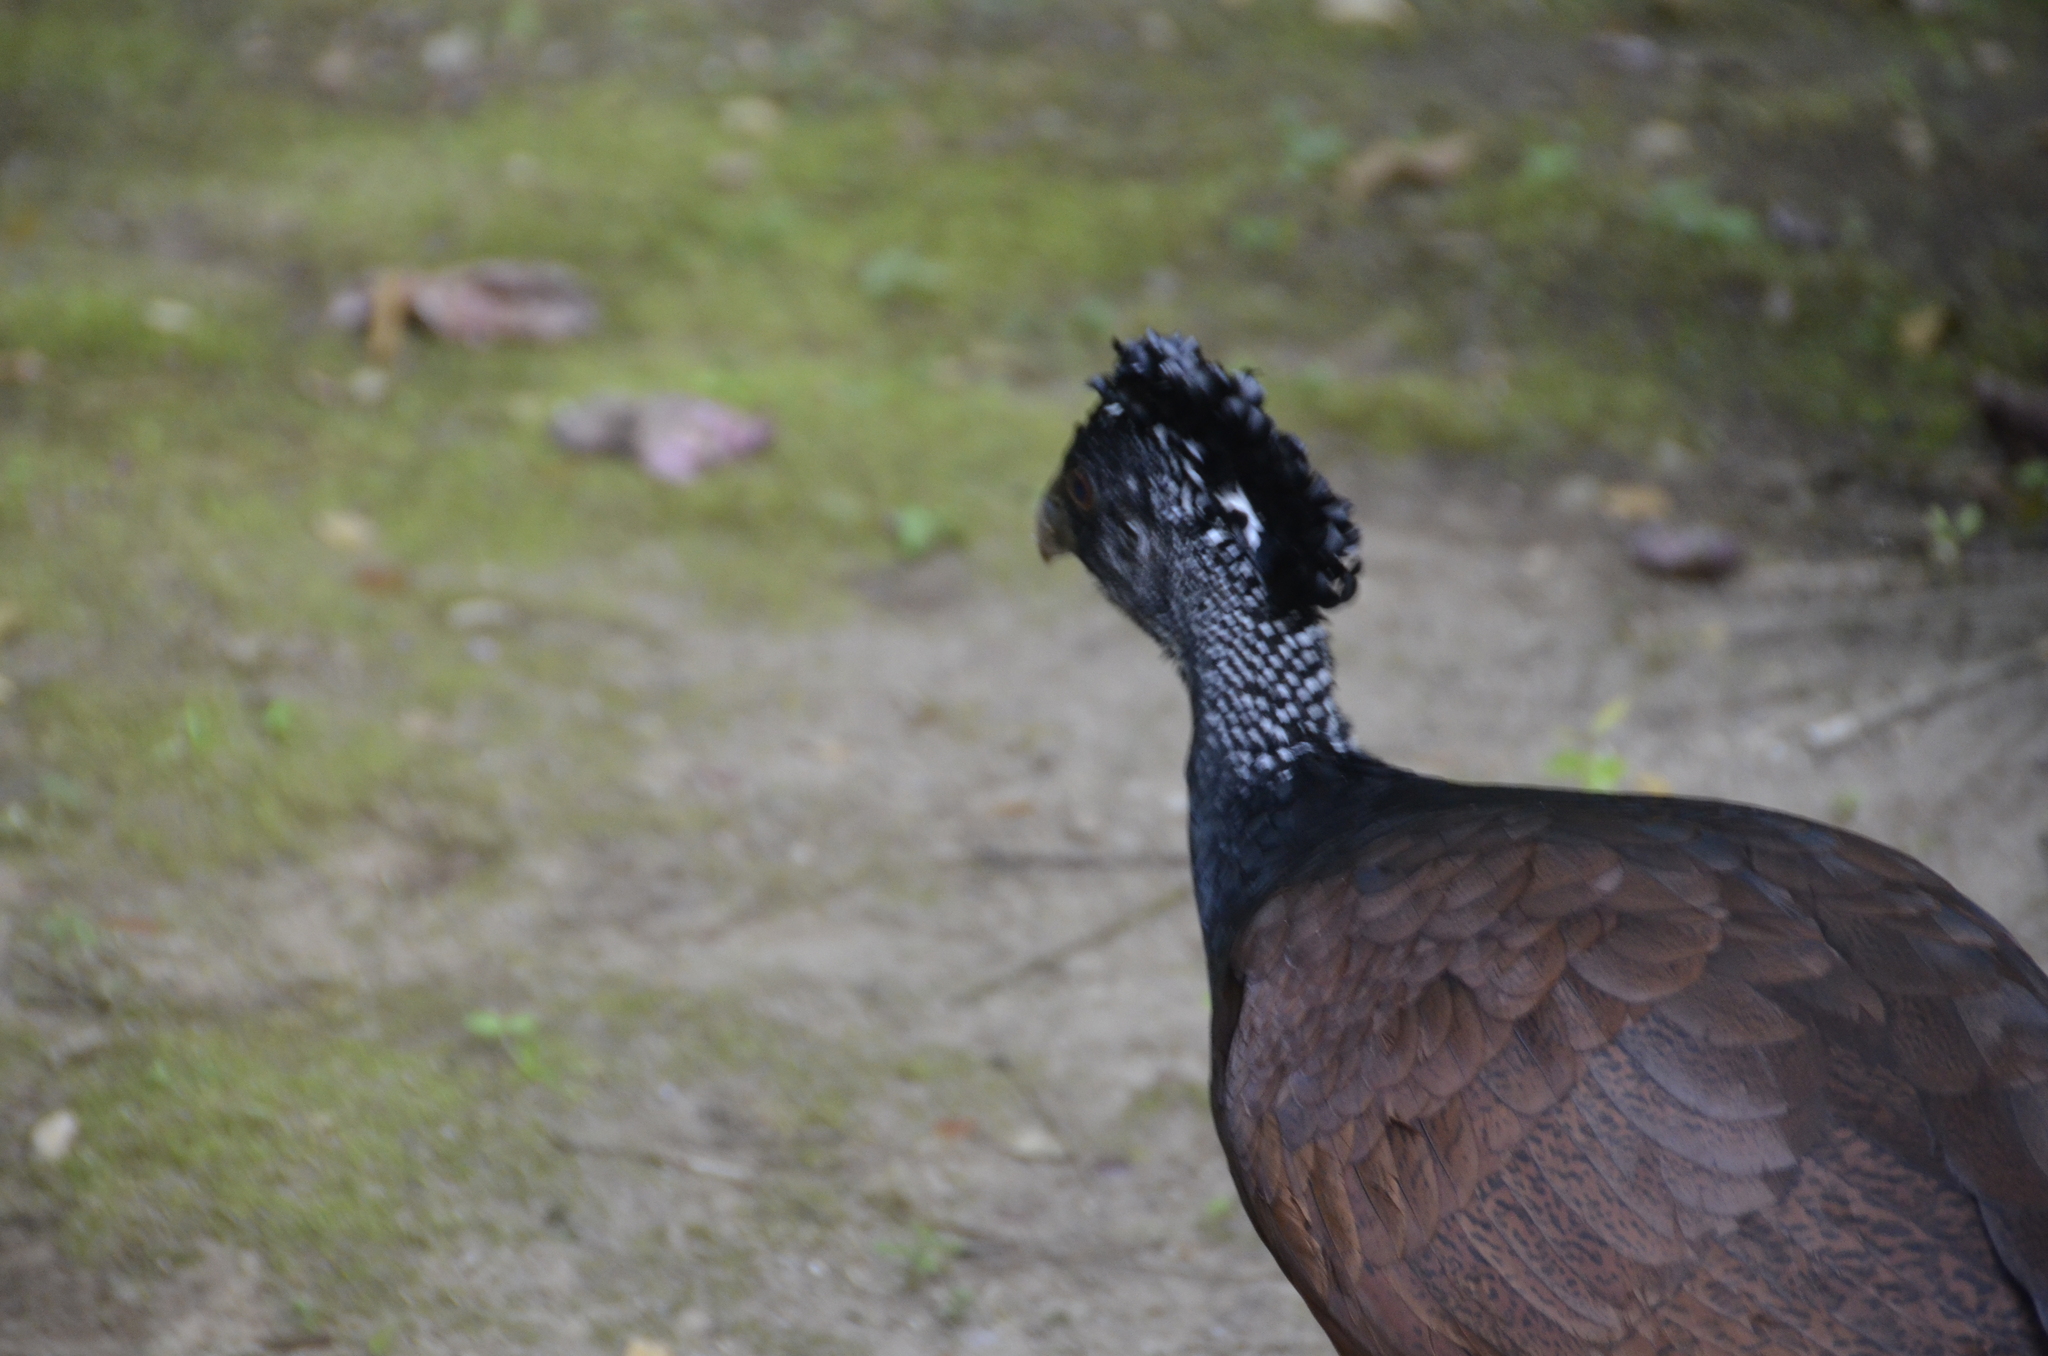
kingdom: Animalia
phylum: Chordata
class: Aves
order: Galliformes
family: Cracidae
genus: Crax
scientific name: Crax rubra
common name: Great curassow
